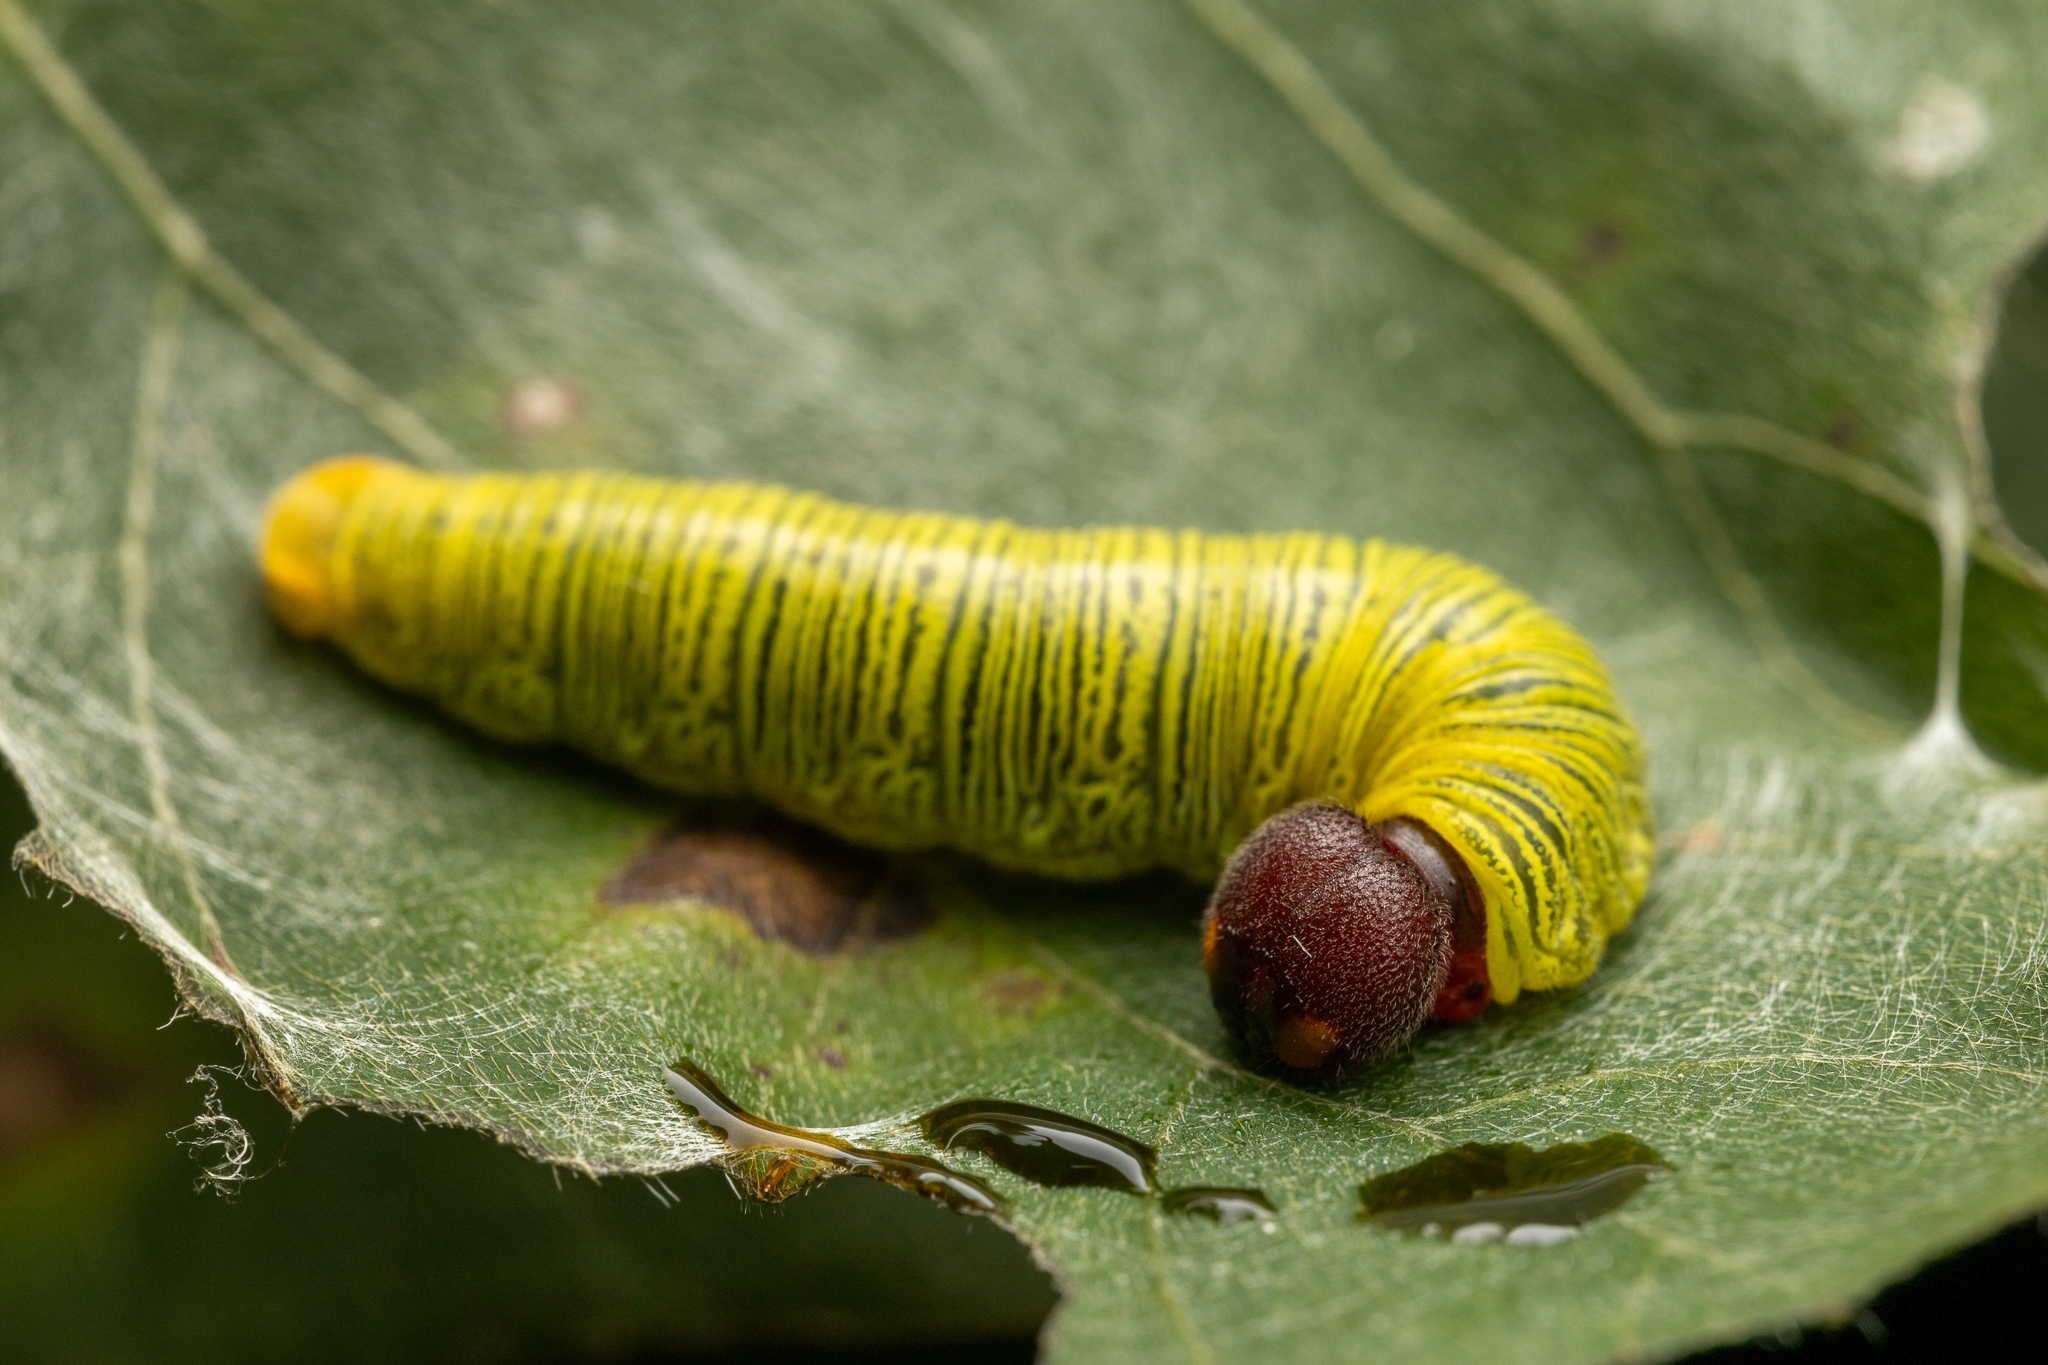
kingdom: Animalia
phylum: Arthropoda
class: Insecta
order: Lepidoptera
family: Hesperiidae
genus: Epargyreus
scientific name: Epargyreus clarus
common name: Silver-spotted skipper
